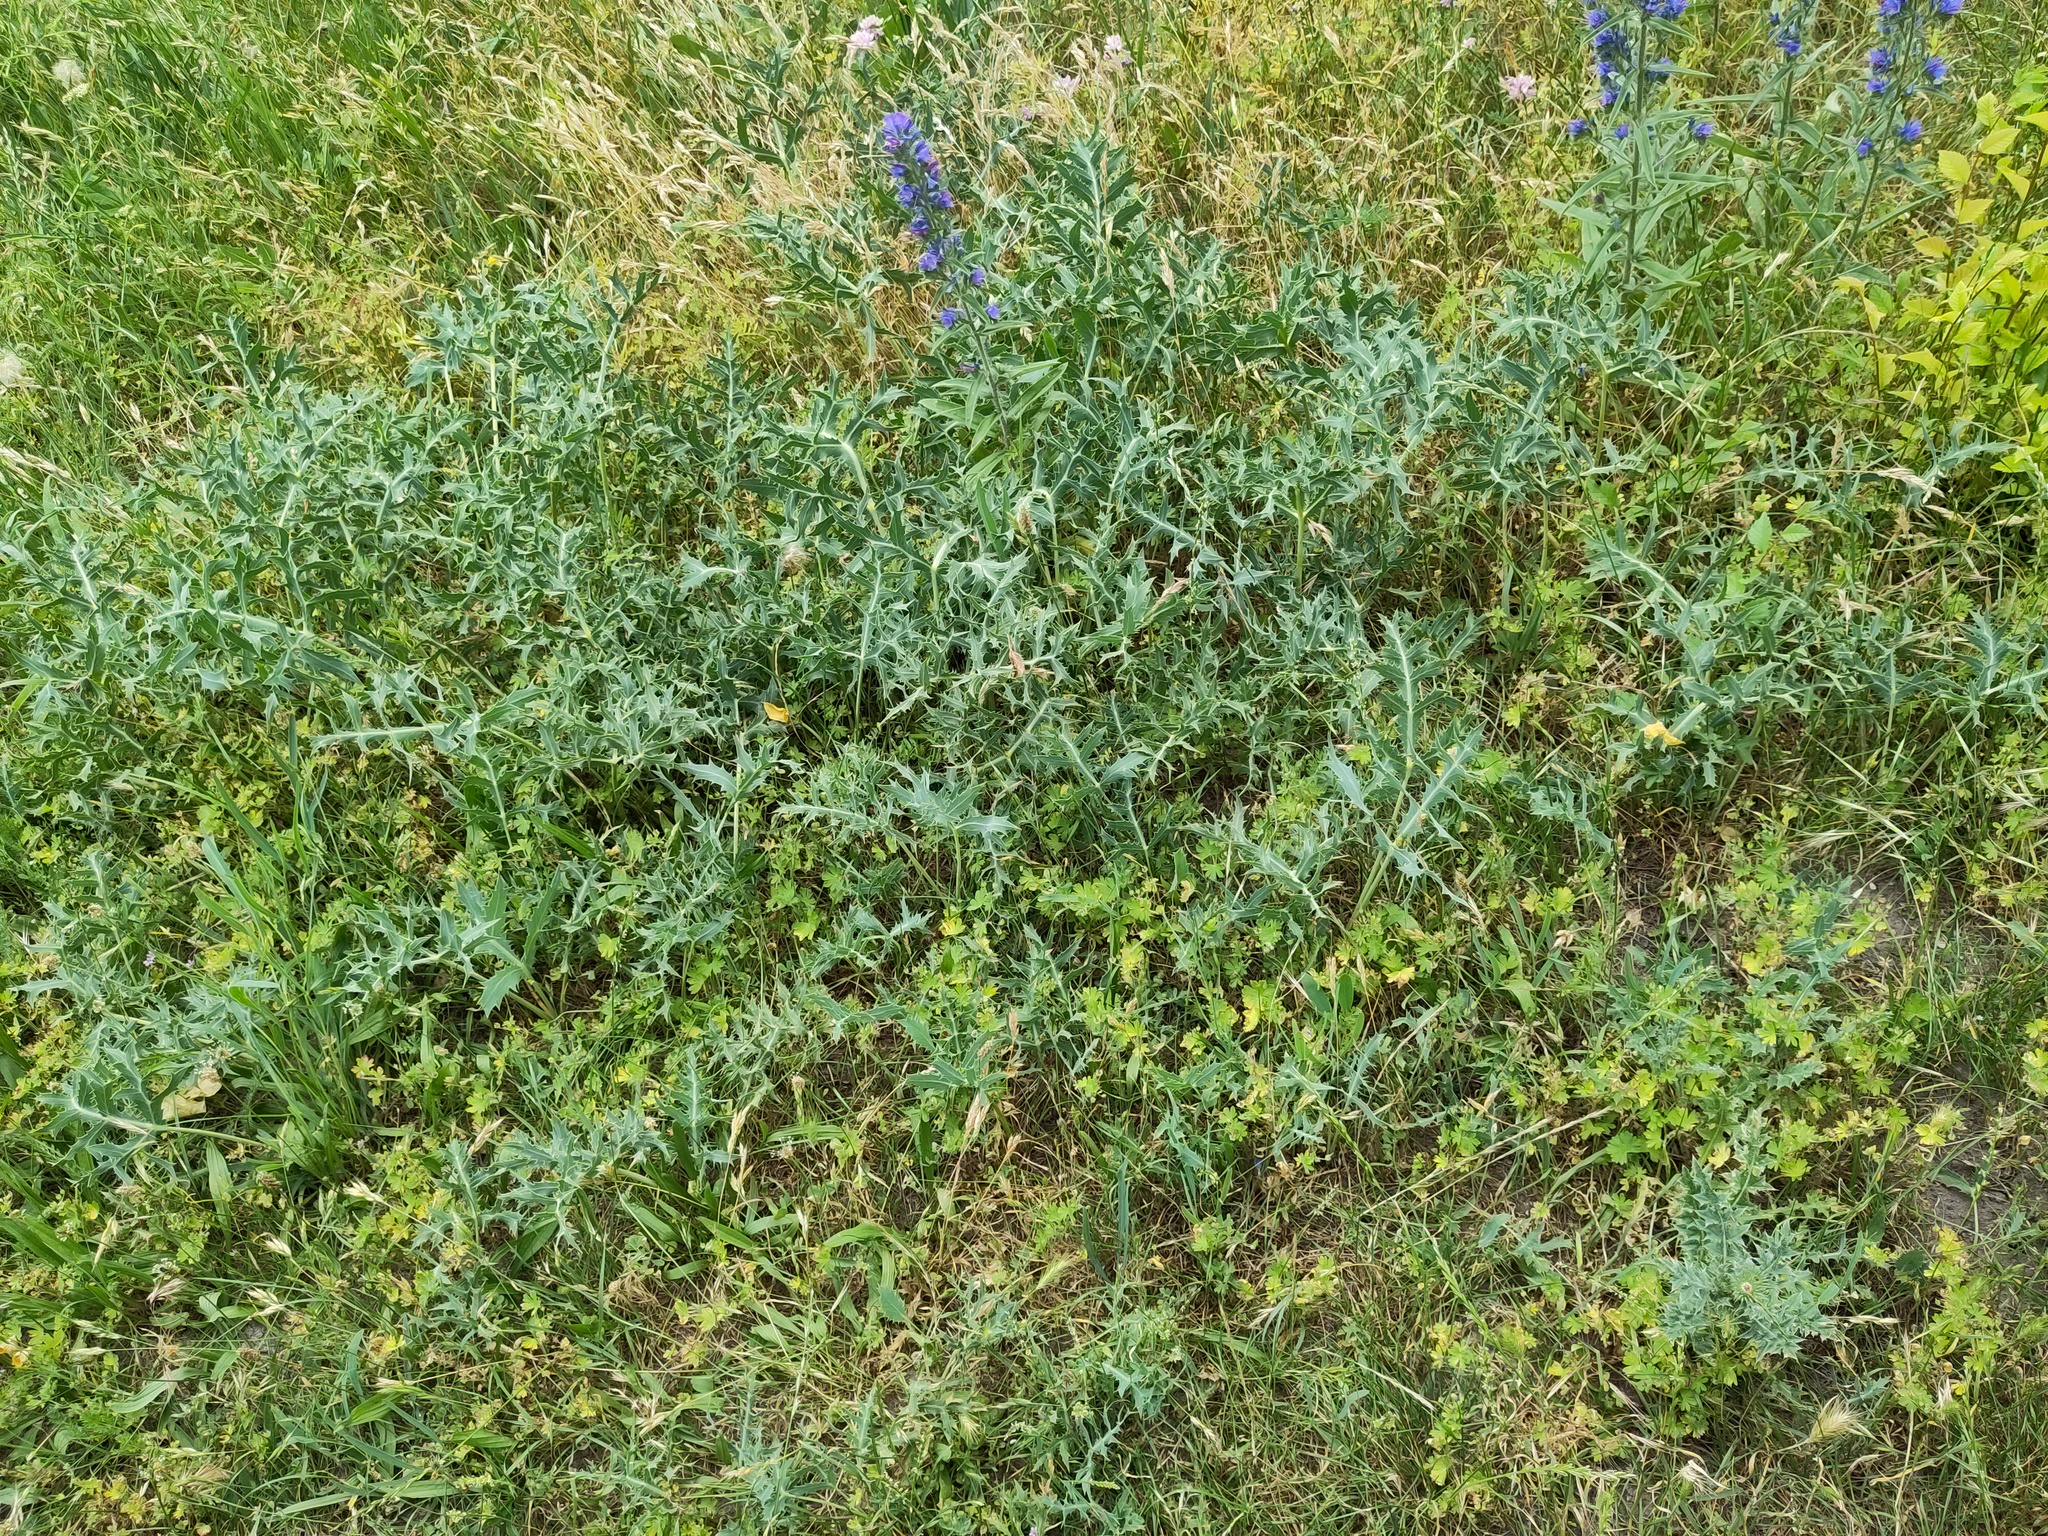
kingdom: Plantae
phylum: Tracheophyta
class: Magnoliopsida
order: Boraginales
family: Boraginaceae
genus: Echium
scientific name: Echium vulgare
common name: Common viper's bugloss
